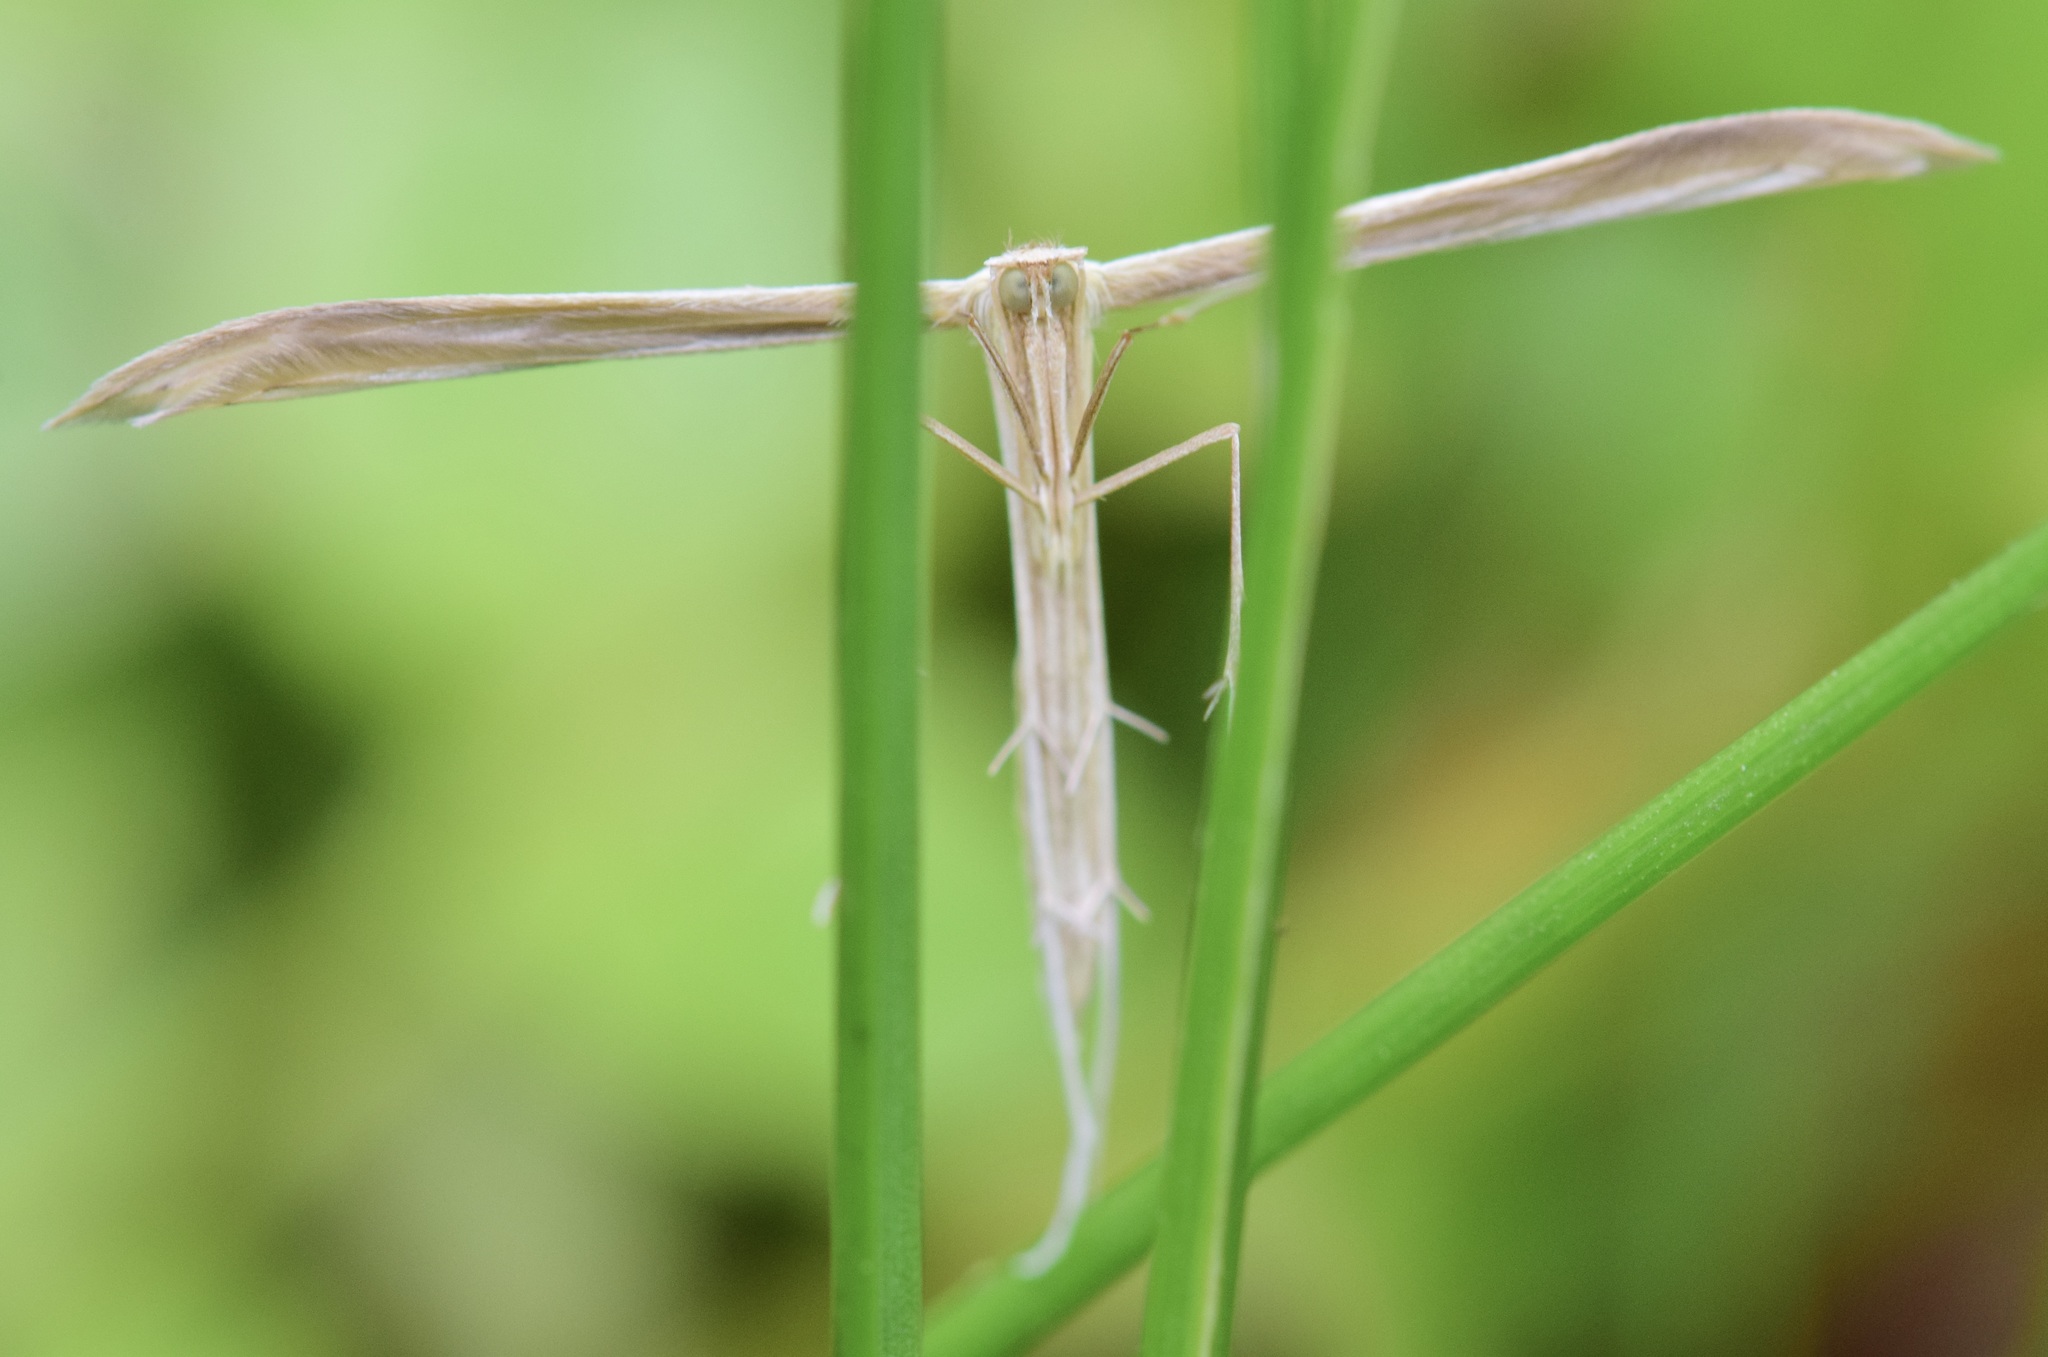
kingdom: Animalia
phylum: Arthropoda
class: Insecta
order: Lepidoptera
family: Pterophoridae
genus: Hellinsia
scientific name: Hellinsia
